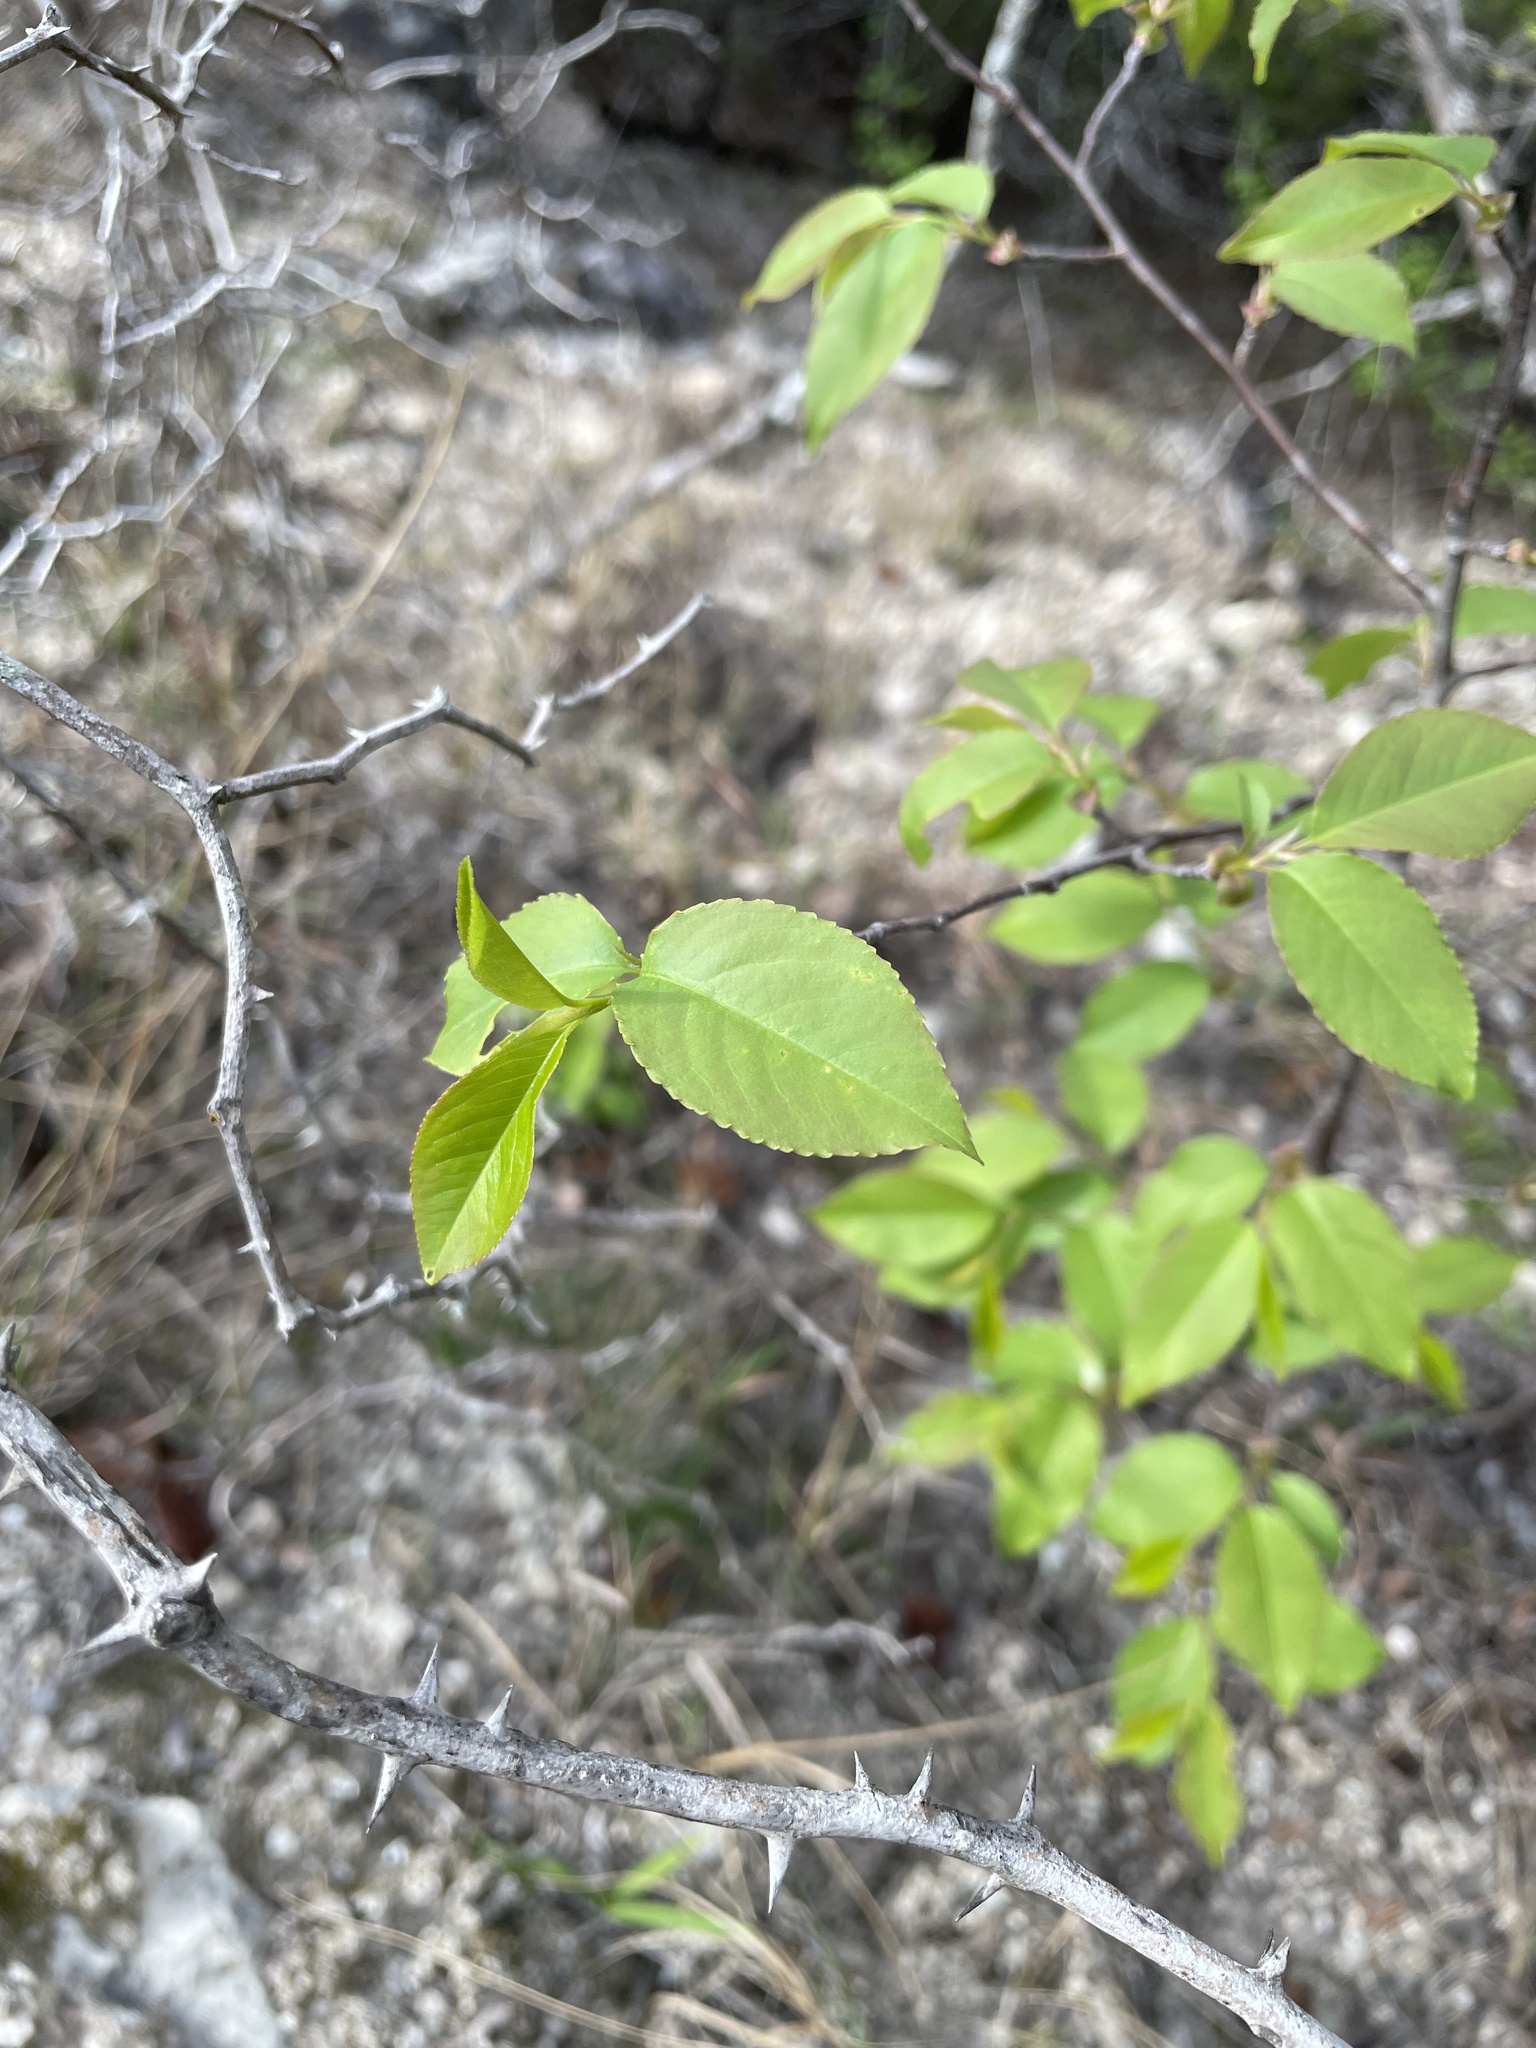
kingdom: Plantae
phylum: Tracheophyta
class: Magnoliopsida
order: Rosales
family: Rosaceae
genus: Prunus
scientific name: Prunus serotina
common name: Black cherry
